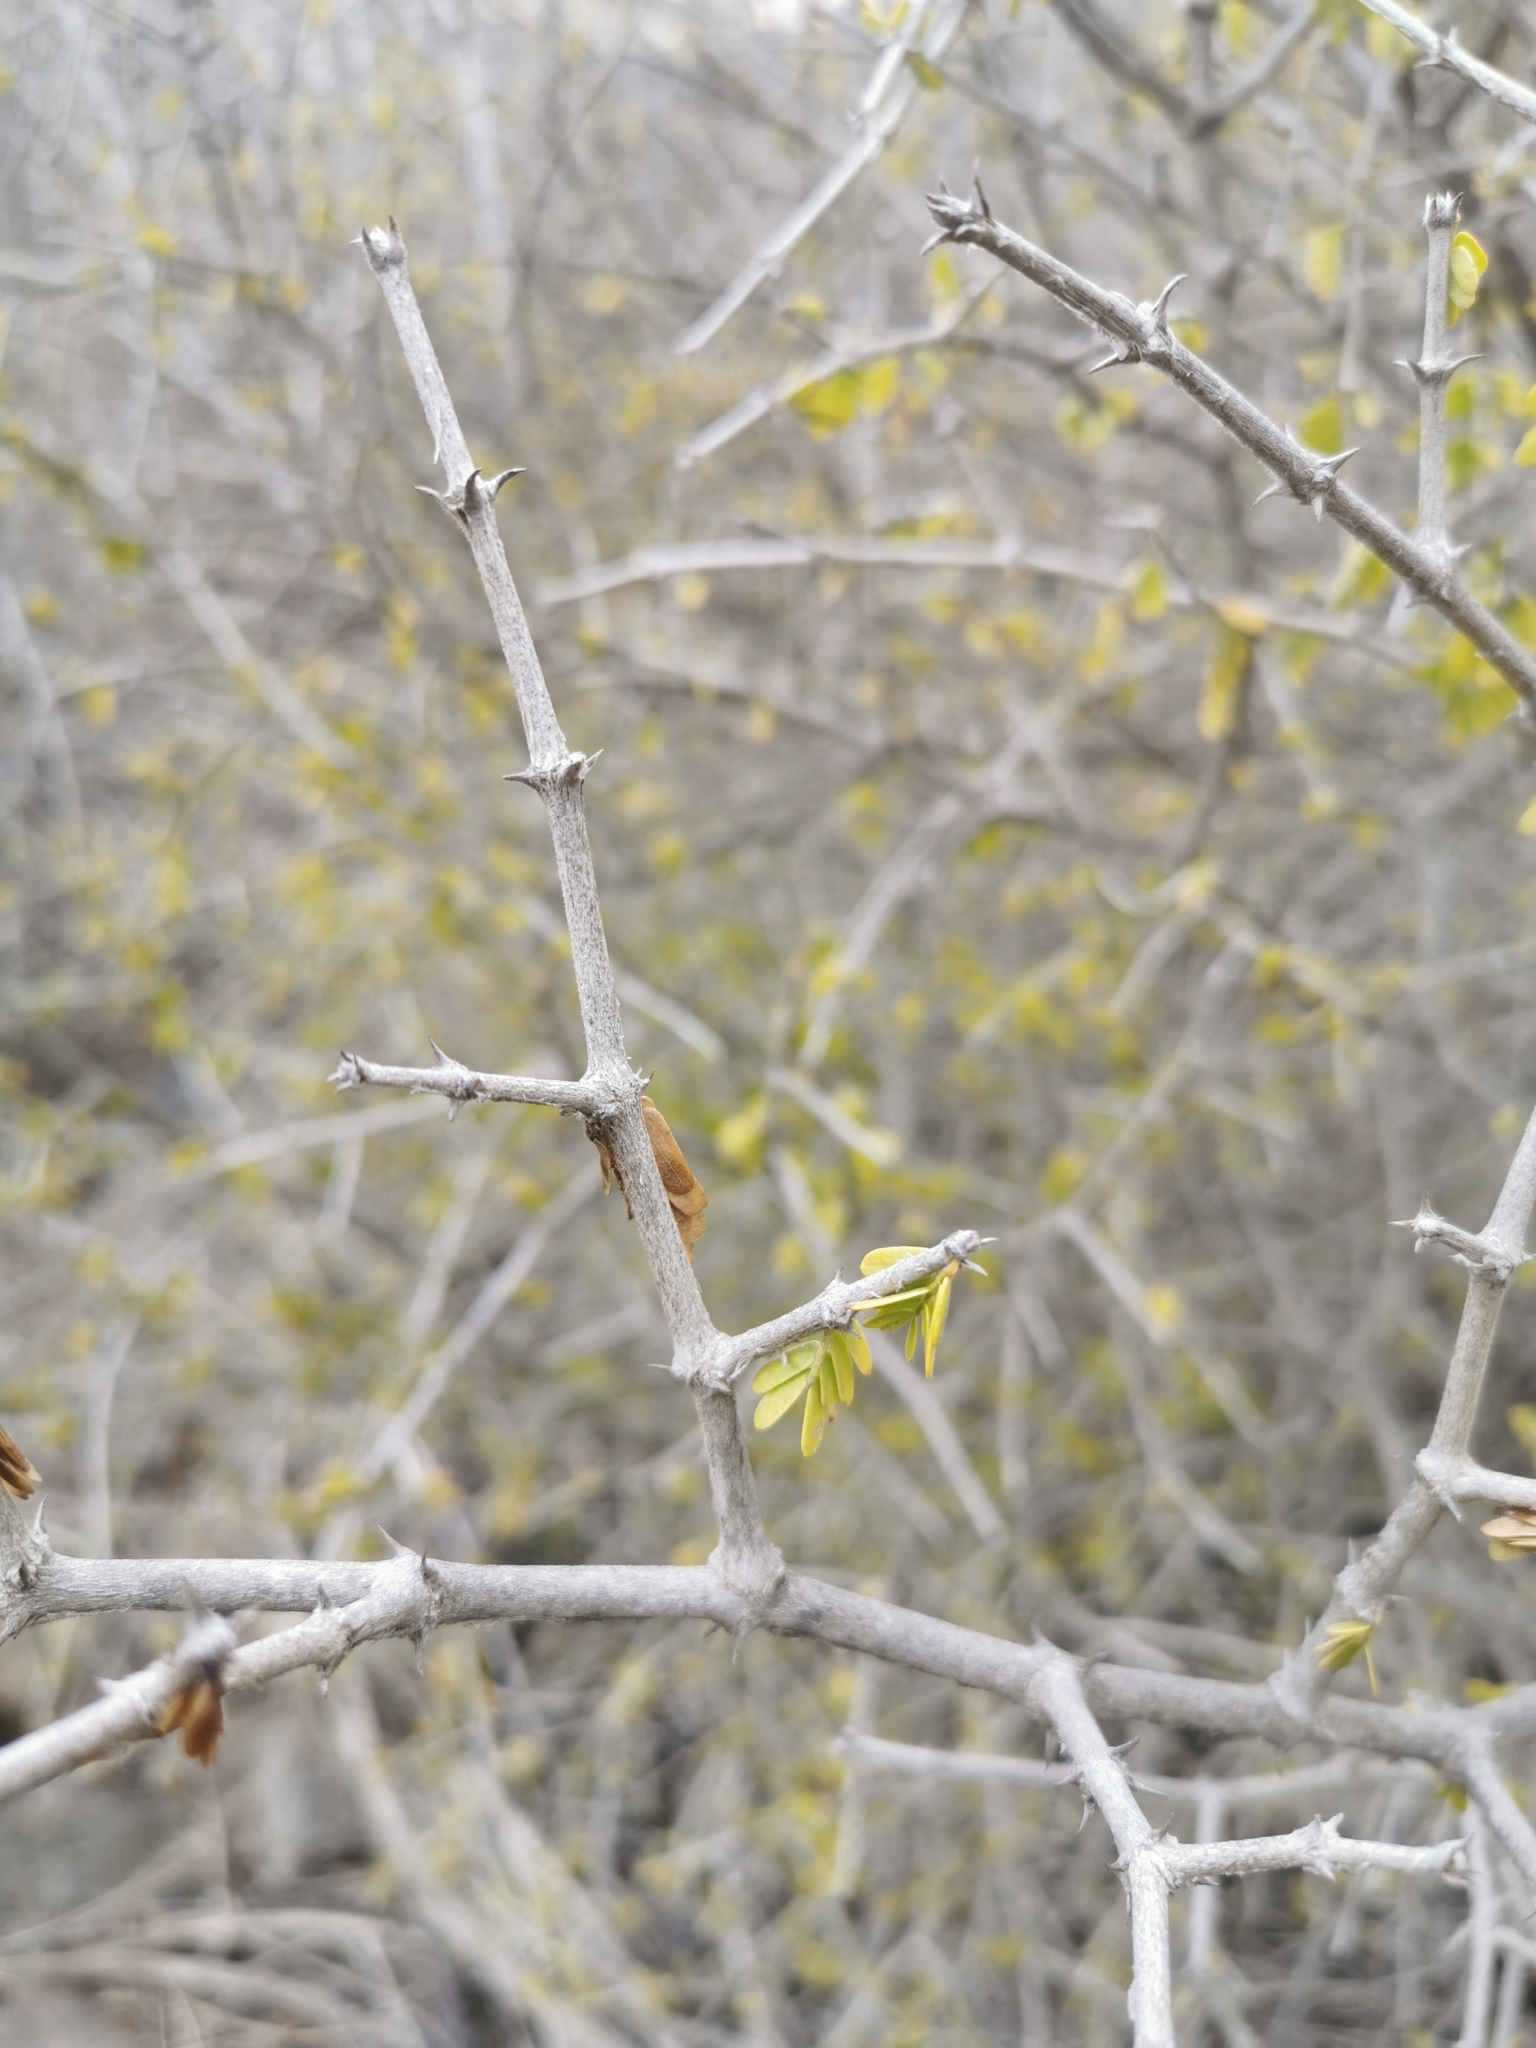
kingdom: Plantae
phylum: Tracheophyta
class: Magnoliopsida
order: Zygophyllales
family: Zygophyllaceae
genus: Porlieria
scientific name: Porlieria chilensis
